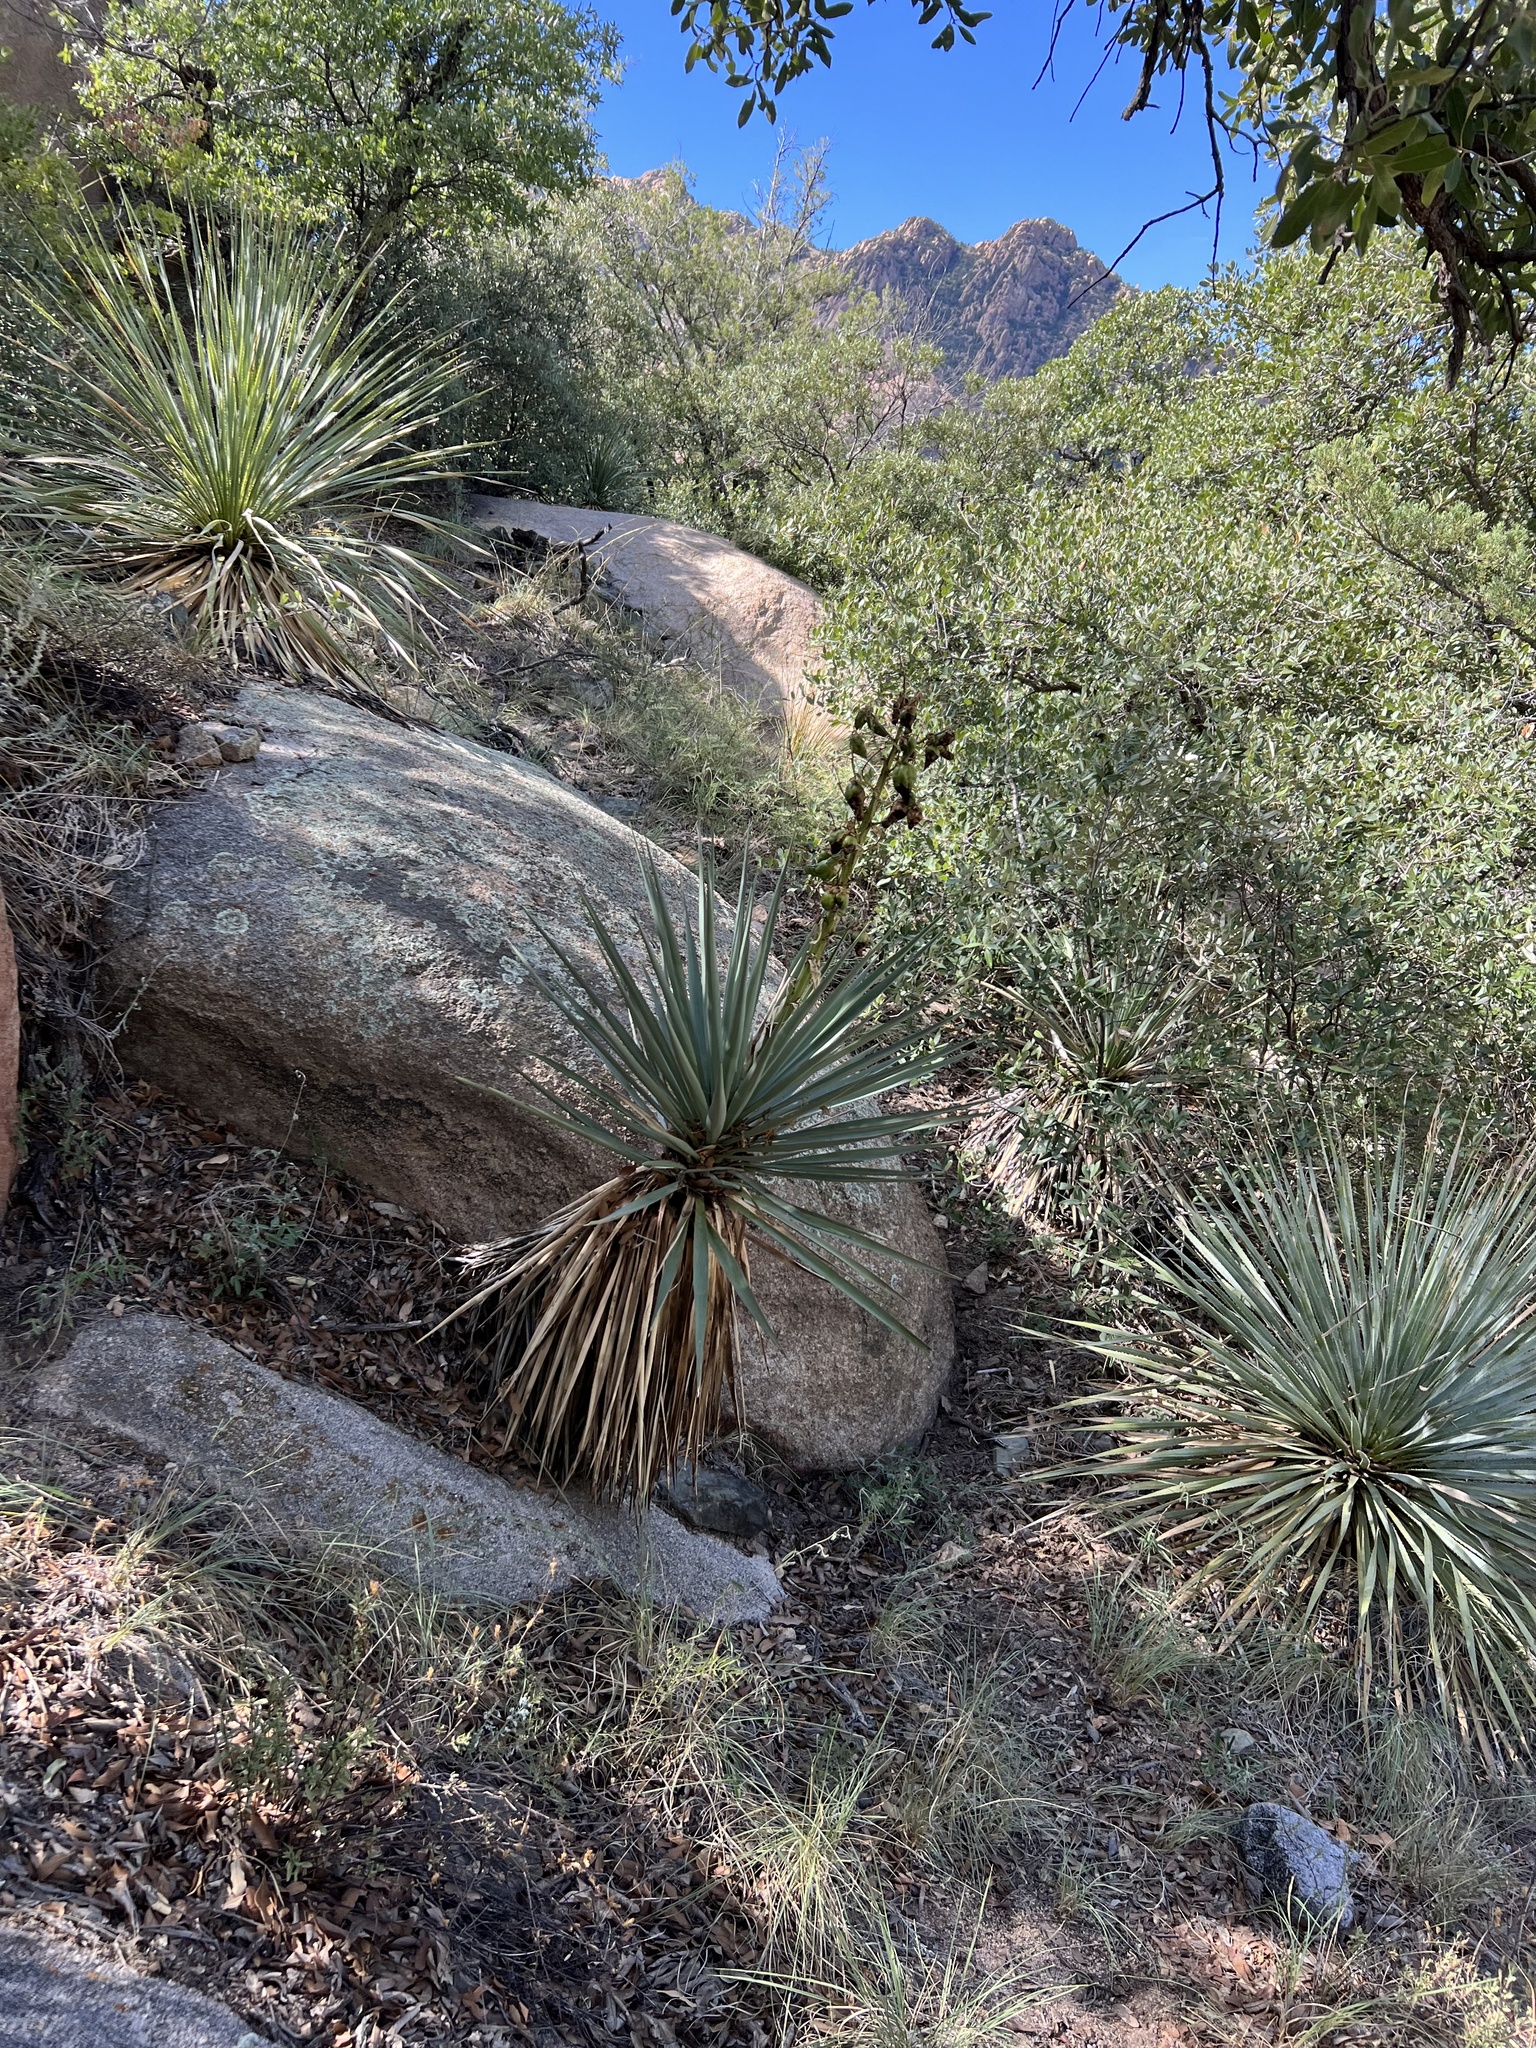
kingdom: Plantae
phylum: Tracheophyta
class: Liliopsida
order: Asparagales
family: Asparagaceae
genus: Yucca
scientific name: Yucca schottii
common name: Hoary yucca
